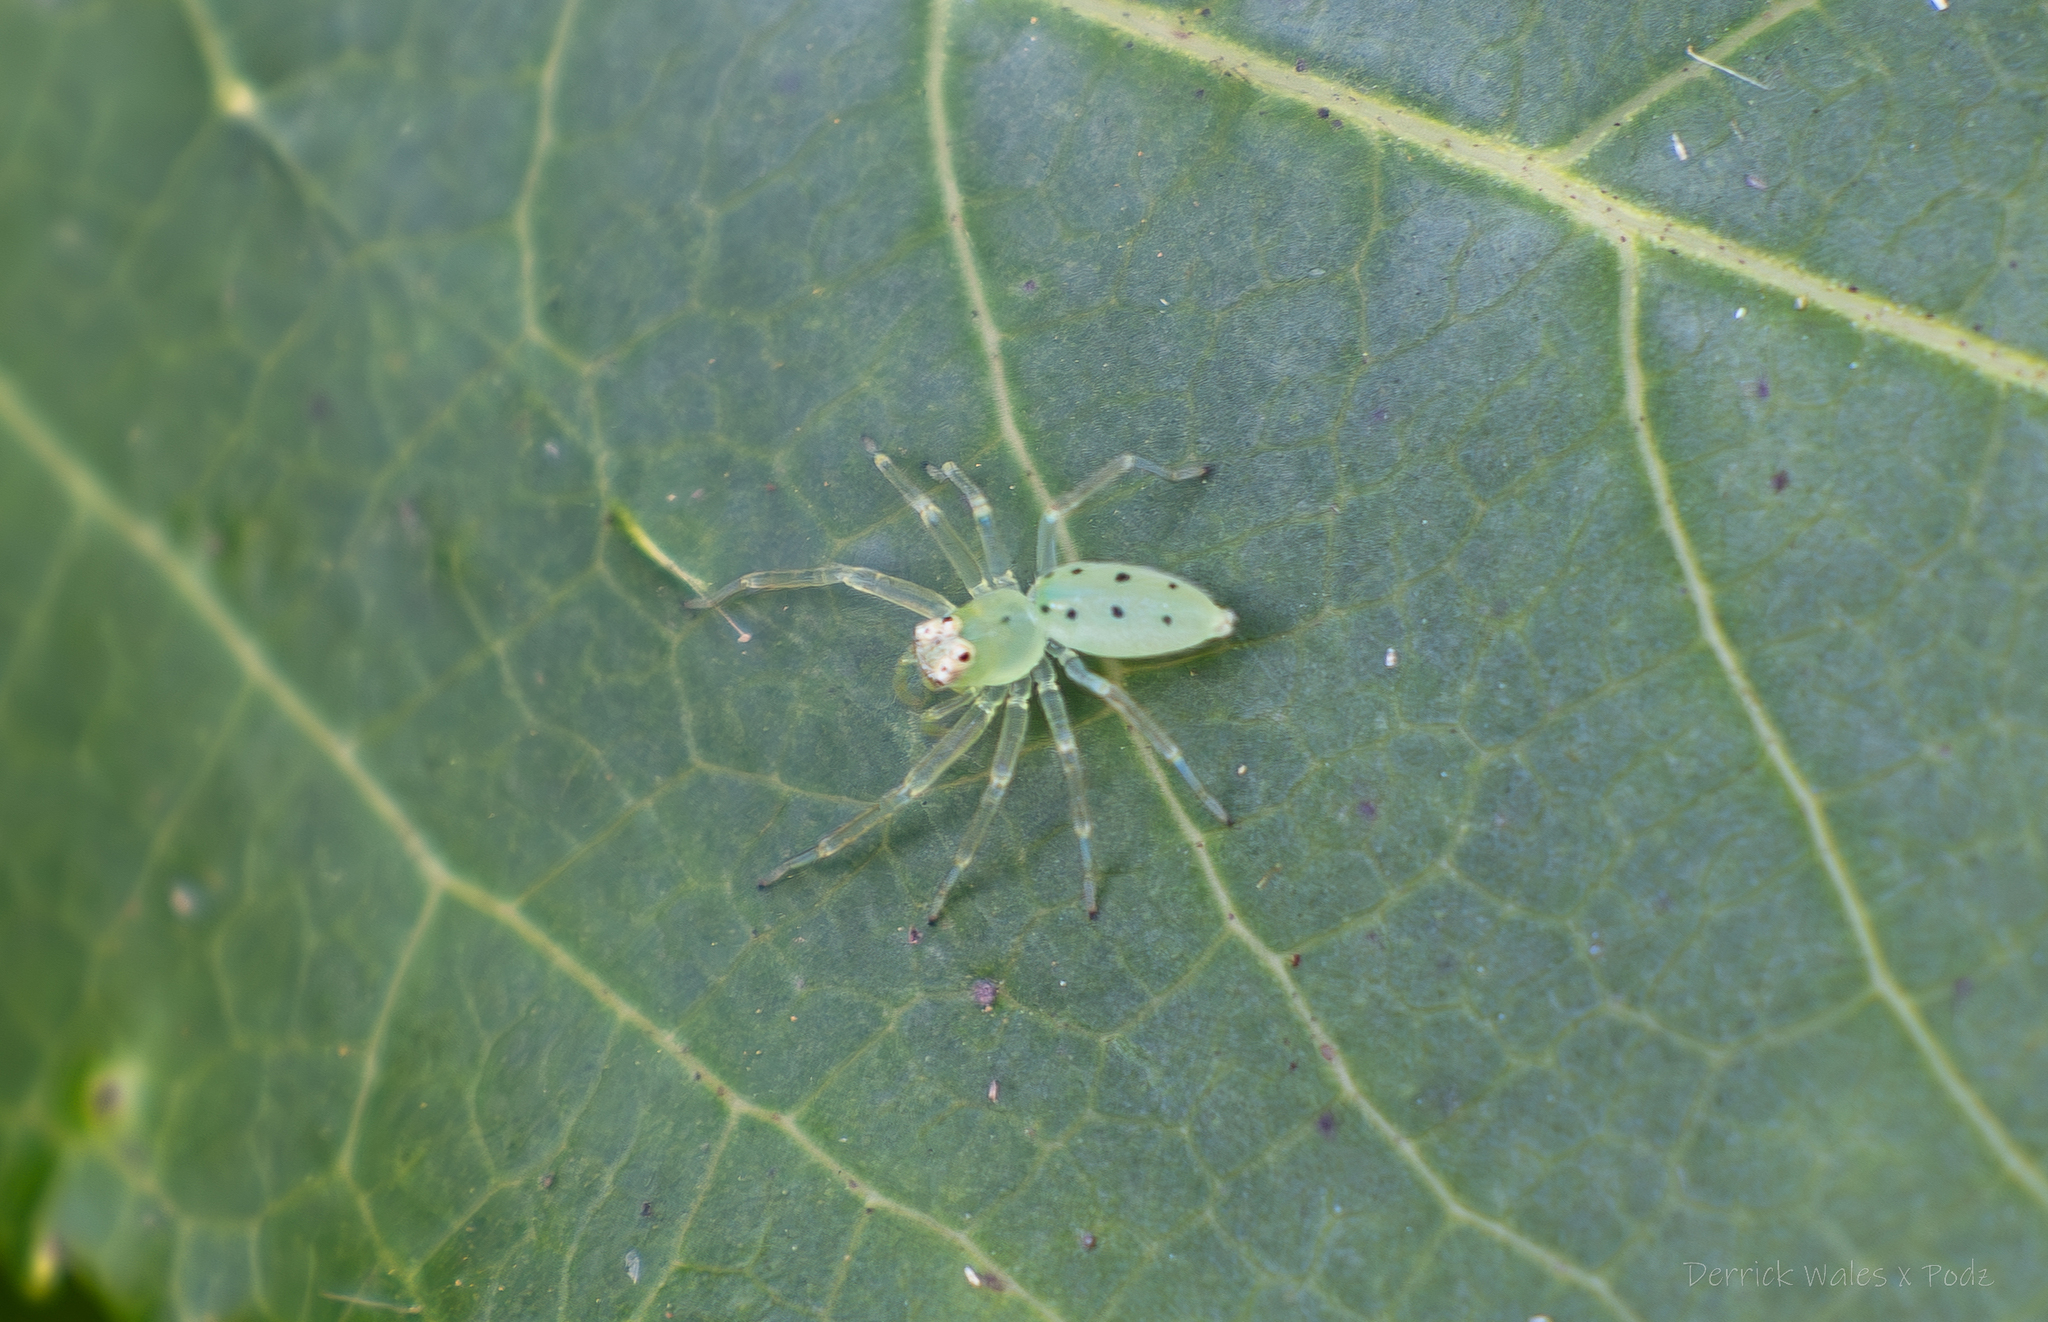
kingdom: Animalia
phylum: Arthropoda
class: Arachnida
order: Araneae
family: Salticidae
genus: Lyssomanes
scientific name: Lyssomanes viridis
